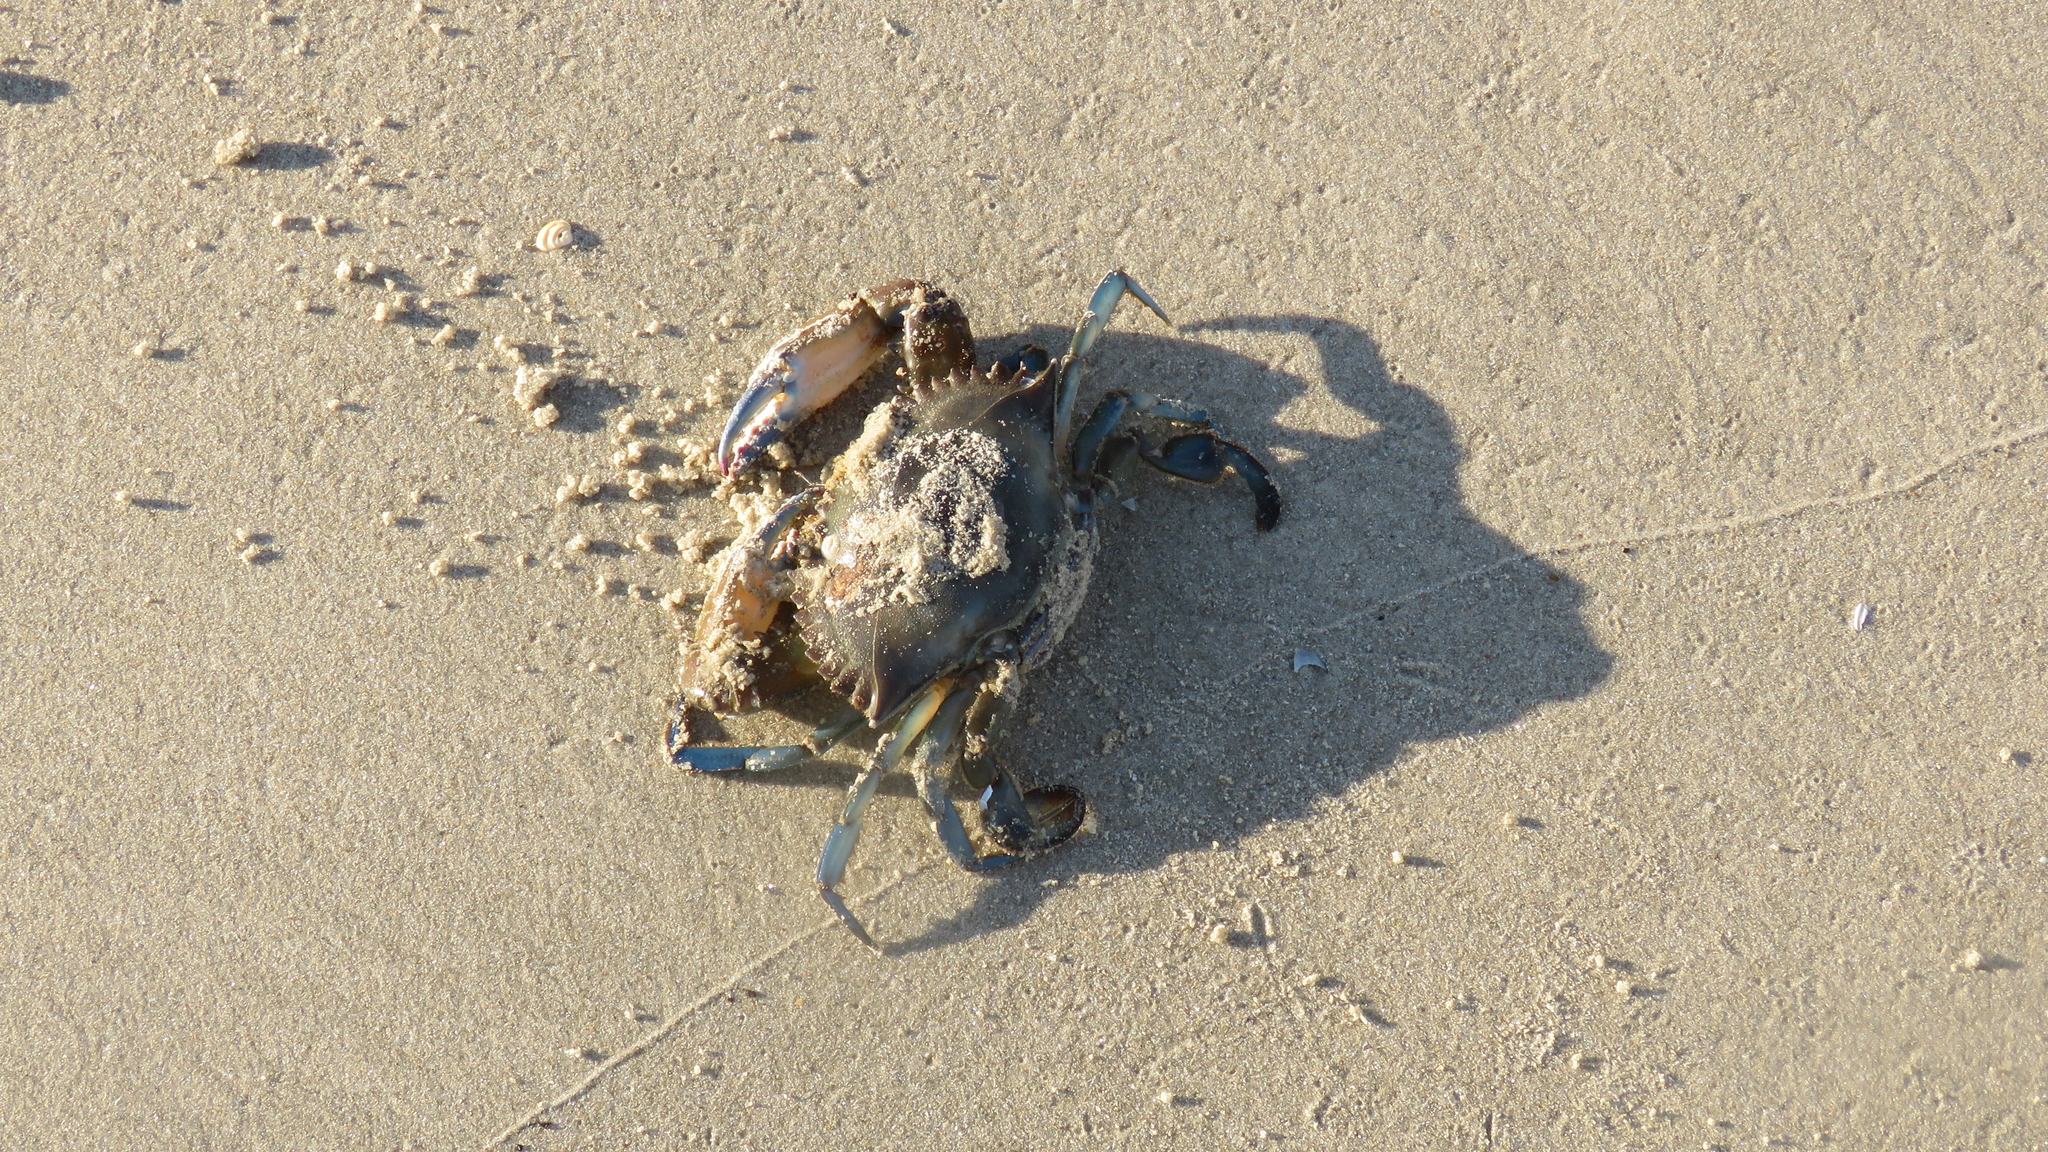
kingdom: Animalia
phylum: Arthropoda
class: Malacostraca
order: Decapoda
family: Portunidae
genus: Callinectes
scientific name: Callinectes sapidus
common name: Blue crab
